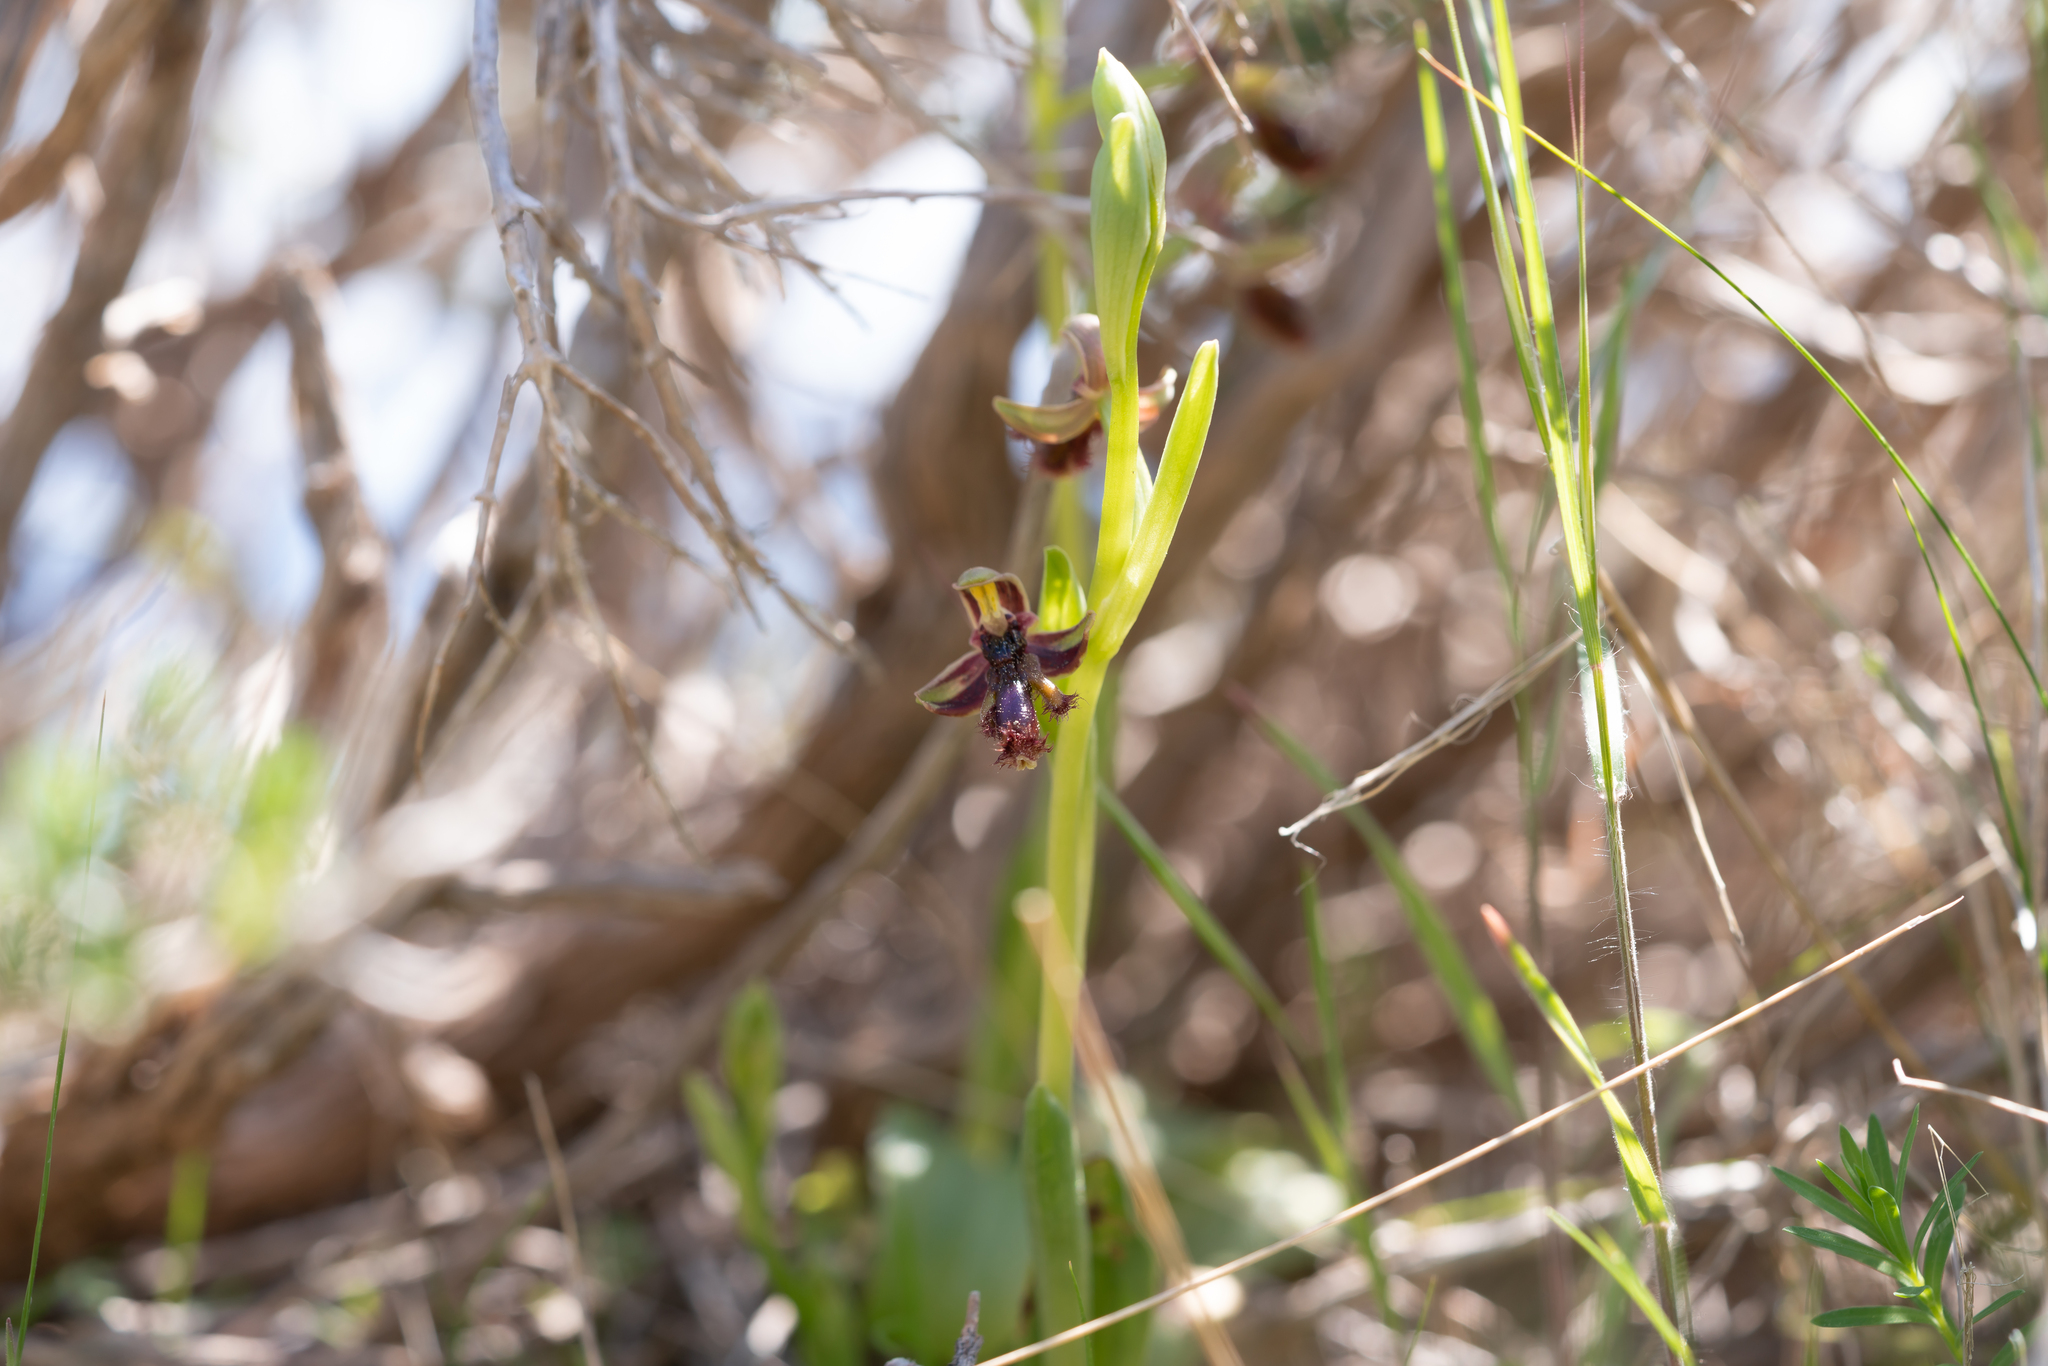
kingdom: Plantae
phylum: Tracheophyta
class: Liliopsida
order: Asparagales
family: Orchidaceae
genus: Ophrys
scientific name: Ophrys speculum
